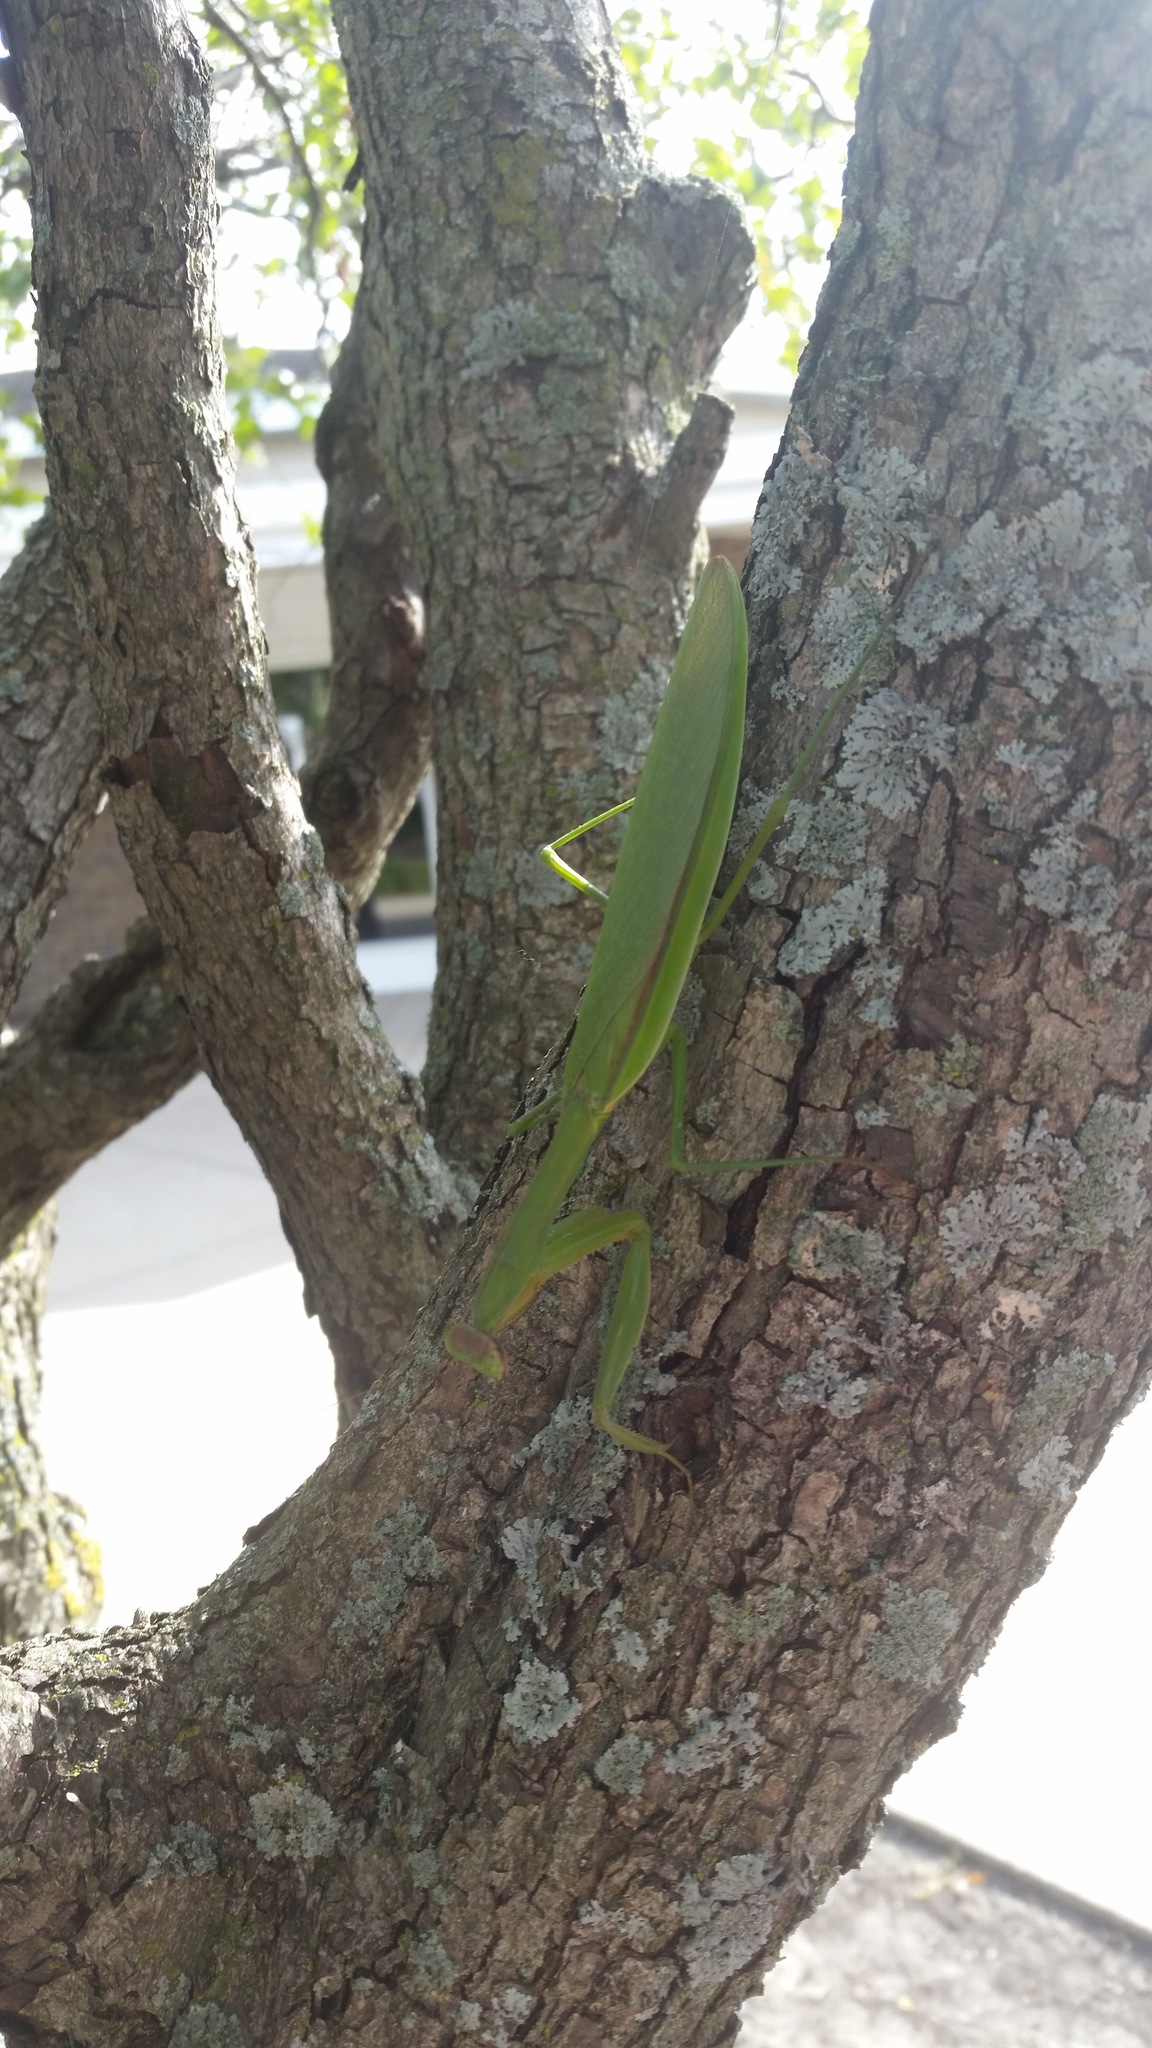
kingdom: Animalia
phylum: Arthropoda
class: Insecta
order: Mantodea
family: Mantidae
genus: Tenodera
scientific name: Tenodera sinensis
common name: Chinese mantis
